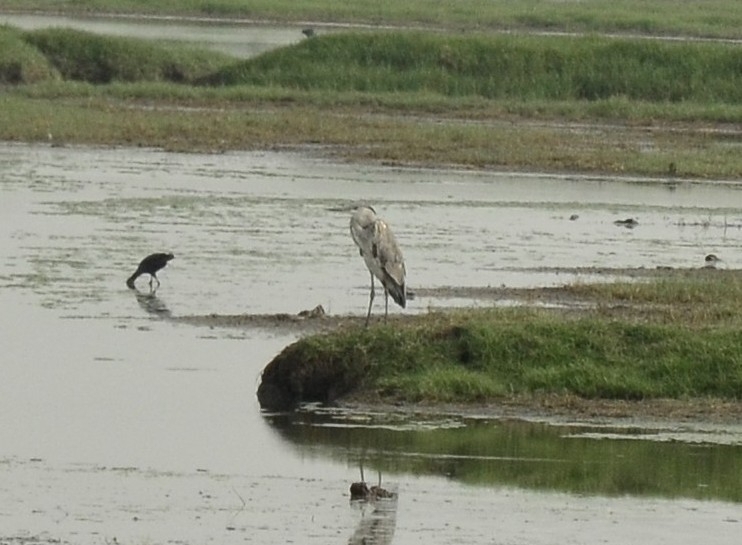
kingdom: Animalia
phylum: Chordata
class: Aves
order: Pelecaniformes
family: Ardeidae
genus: Ardea
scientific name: Ardea cinerea
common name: Grey heron
